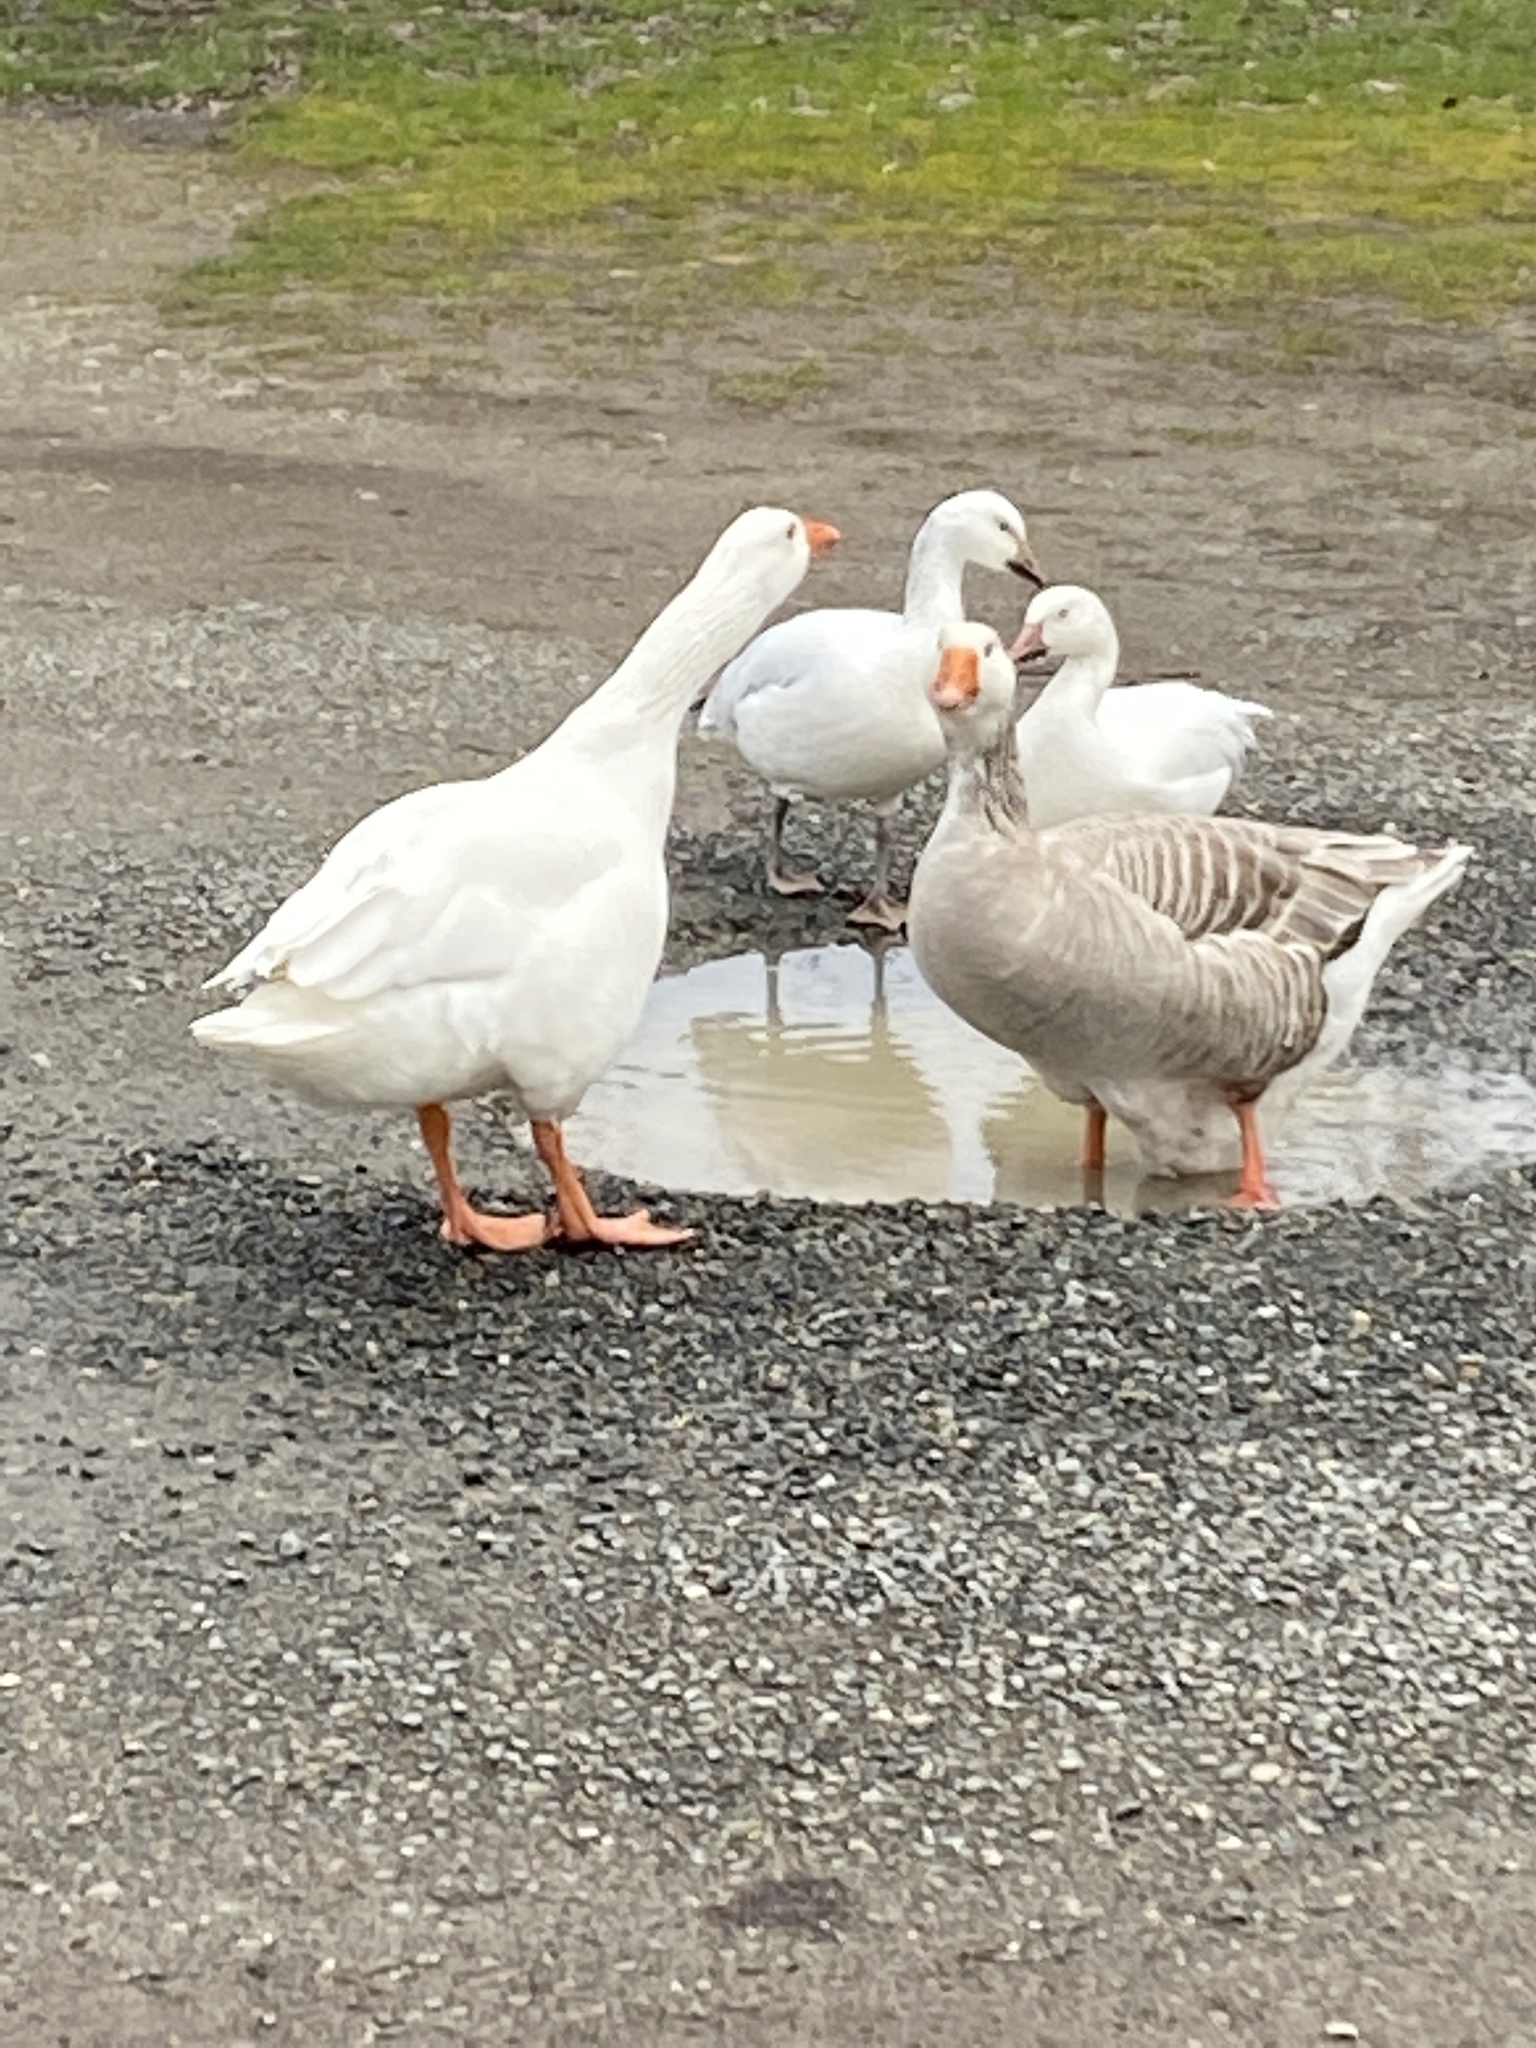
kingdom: Animalia
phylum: Chordata
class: Aves
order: Anseriformes
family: Anatidae
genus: Anser
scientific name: Anser anser
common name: Greylag goose
